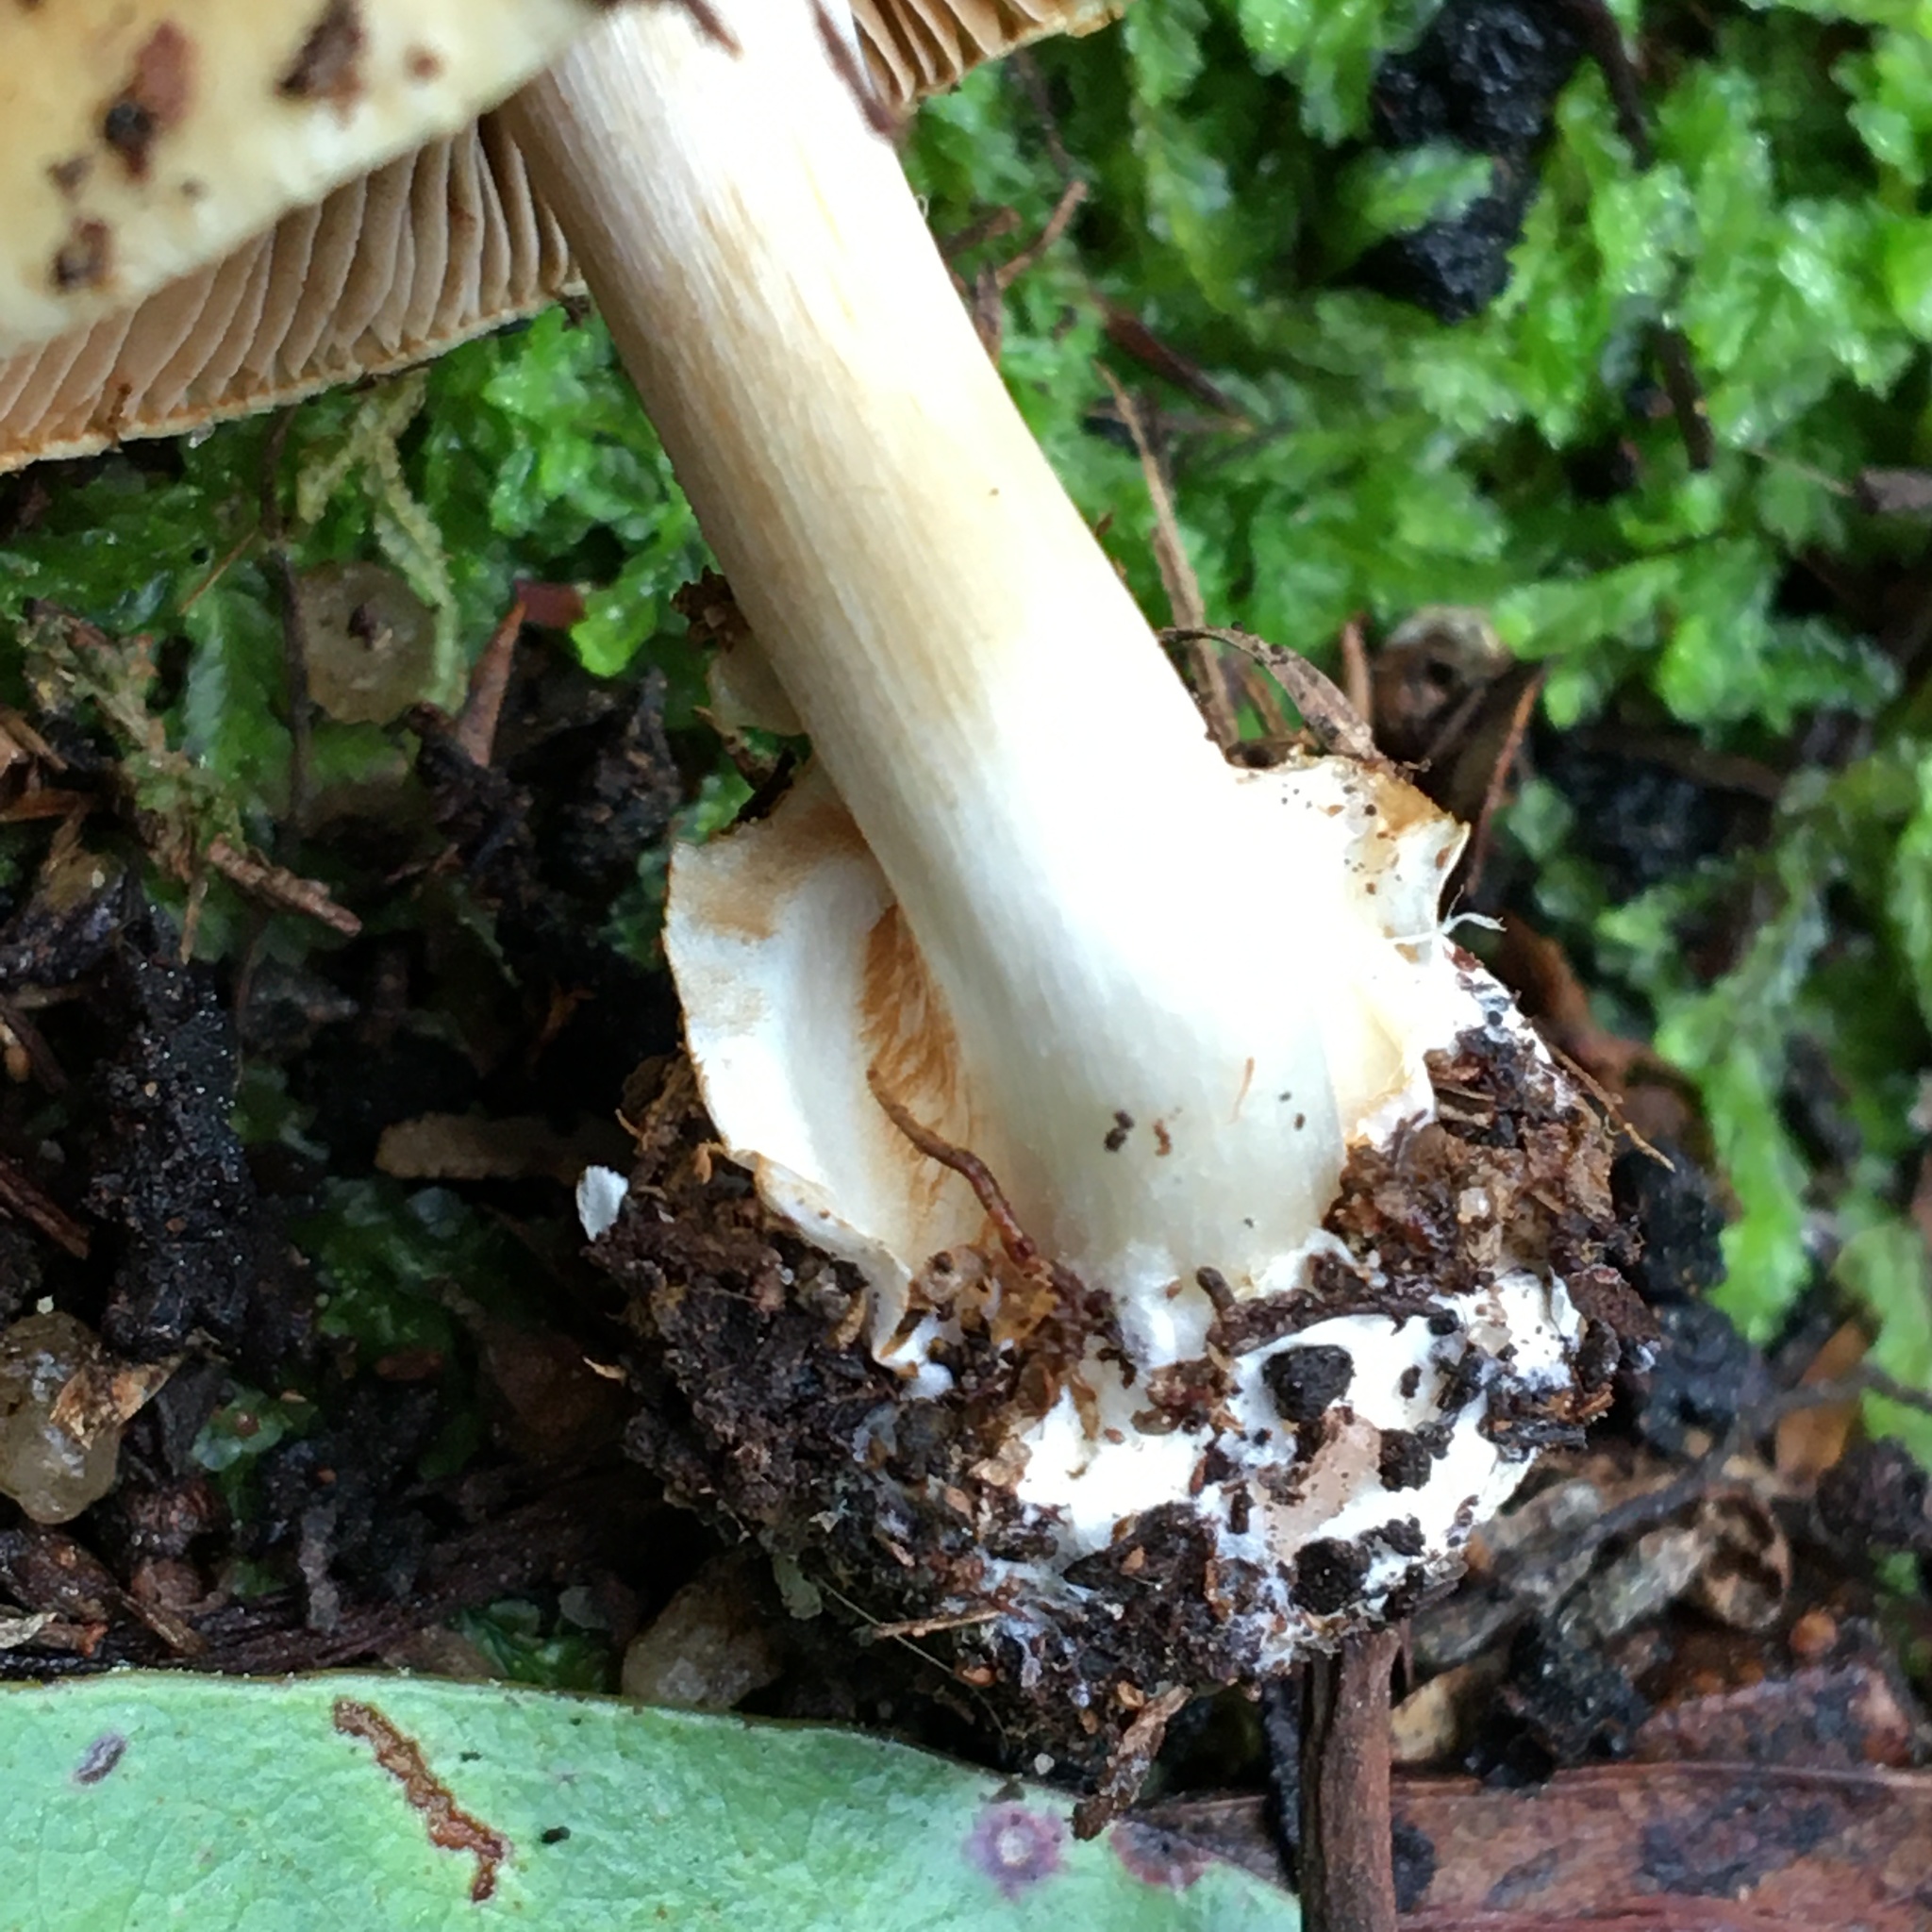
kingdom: Fungi
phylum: Basidiomycota
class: Agaricomycetes
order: Agaricales
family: Cortinariaceae
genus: Cortinarius
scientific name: Cortinarius phalarus
